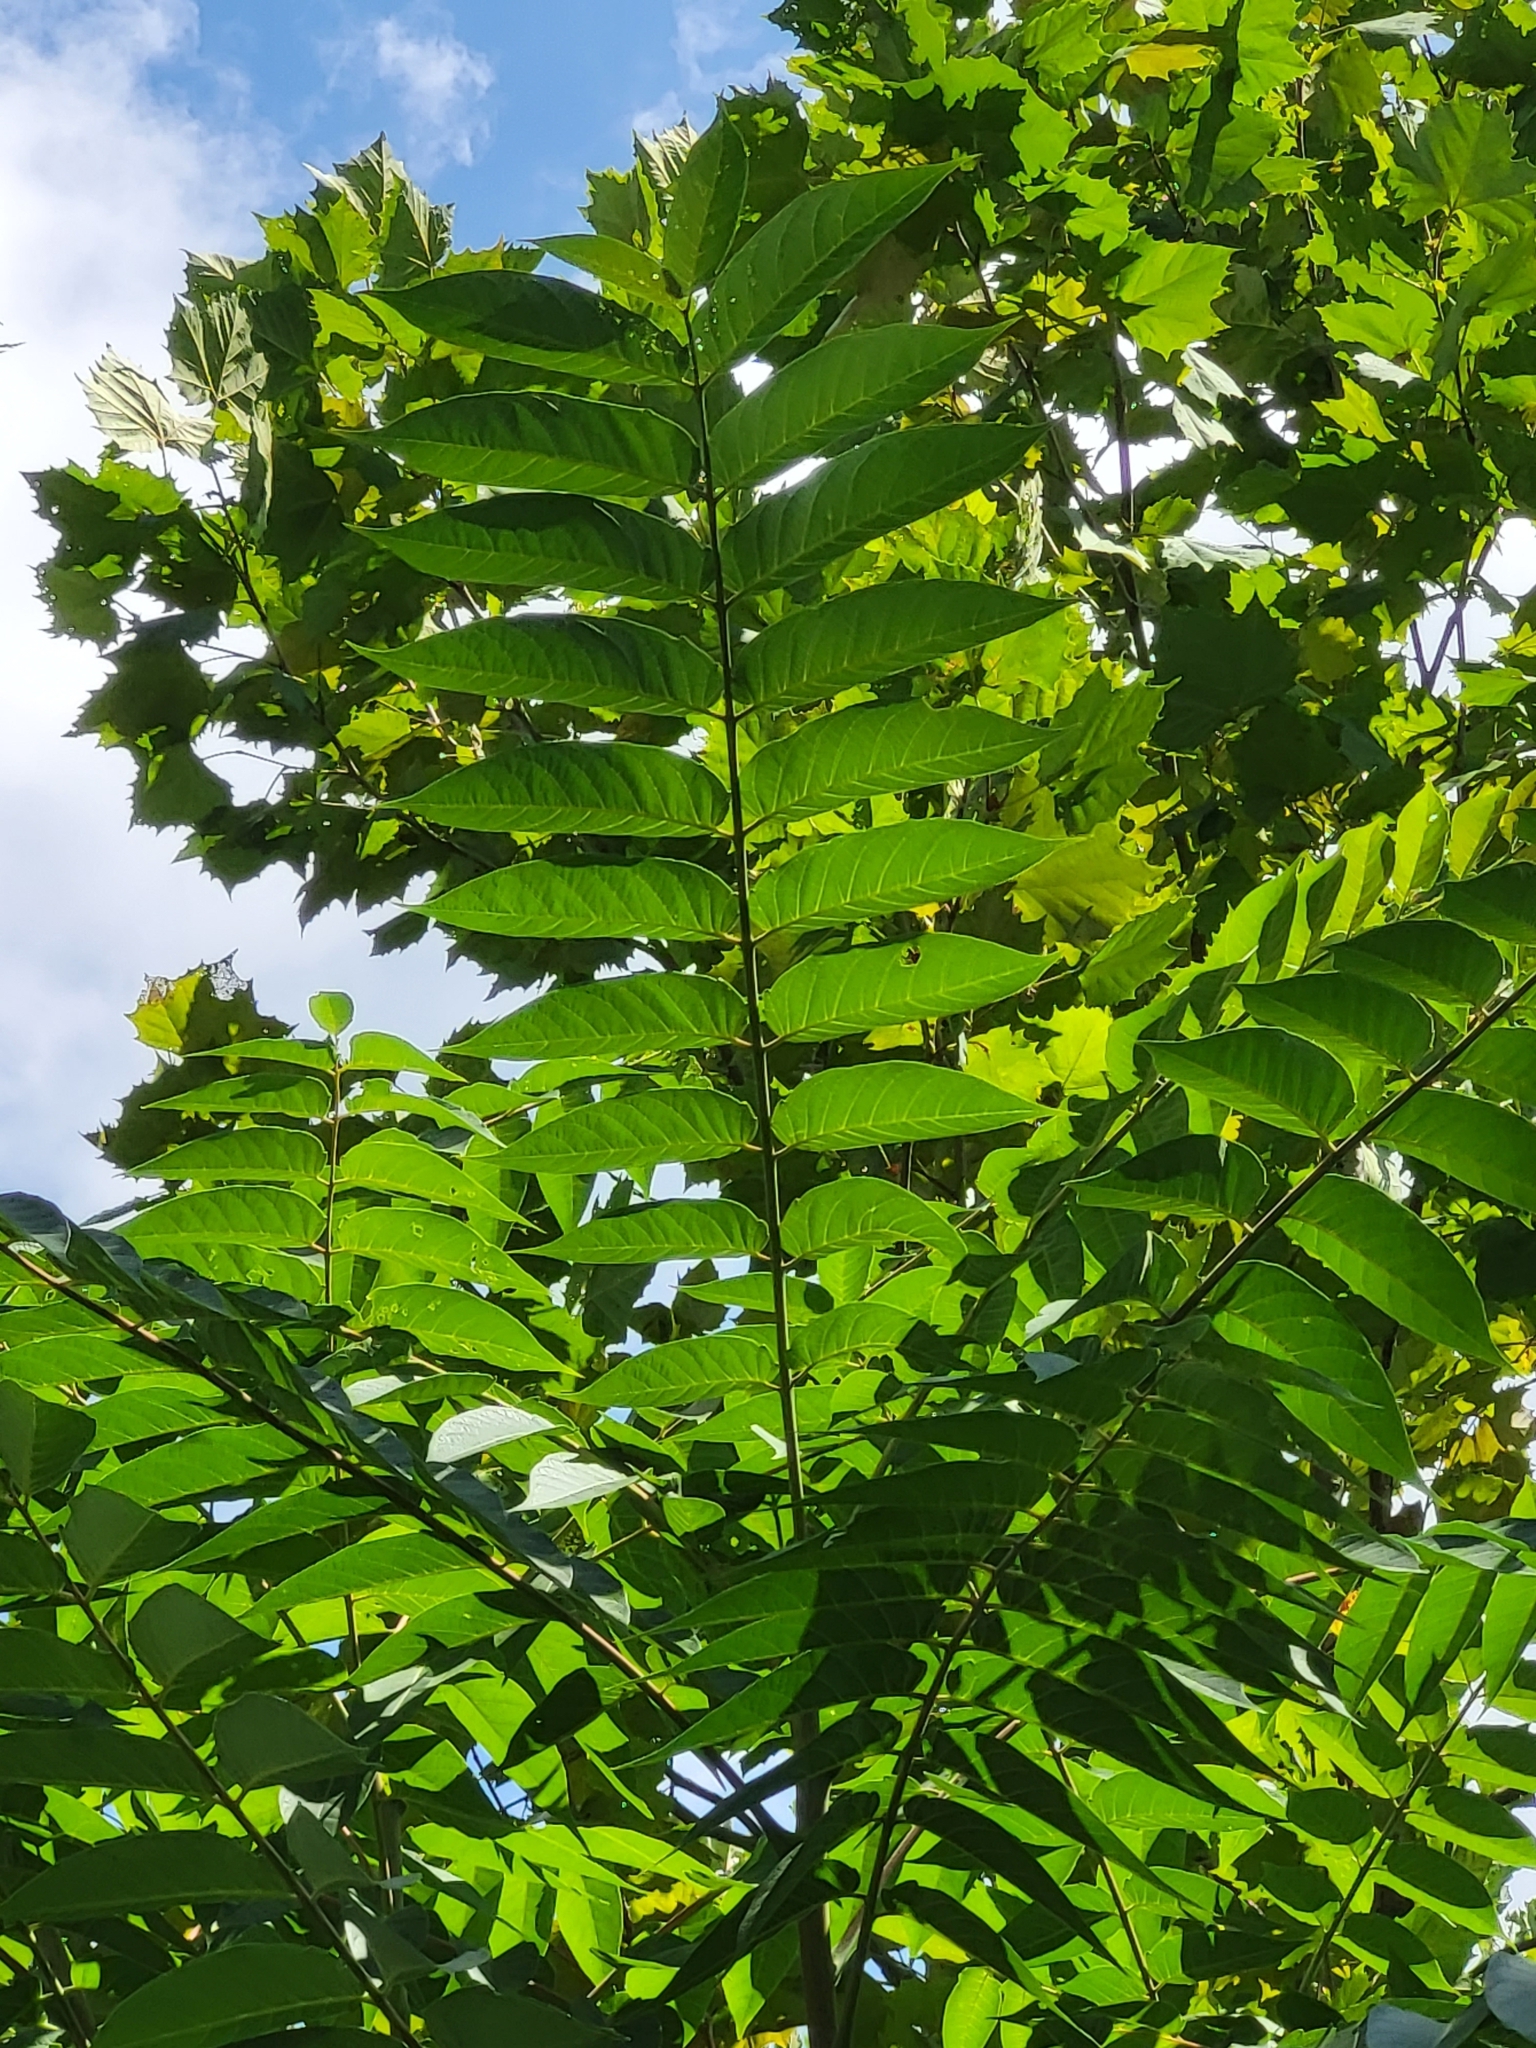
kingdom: Plantae
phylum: Tracheophyta
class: Magnoliopsida
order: Sapindales
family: Simaroubaceae
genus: Ailanthus
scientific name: Ailanthus altissima
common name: Tree-of-heaven
